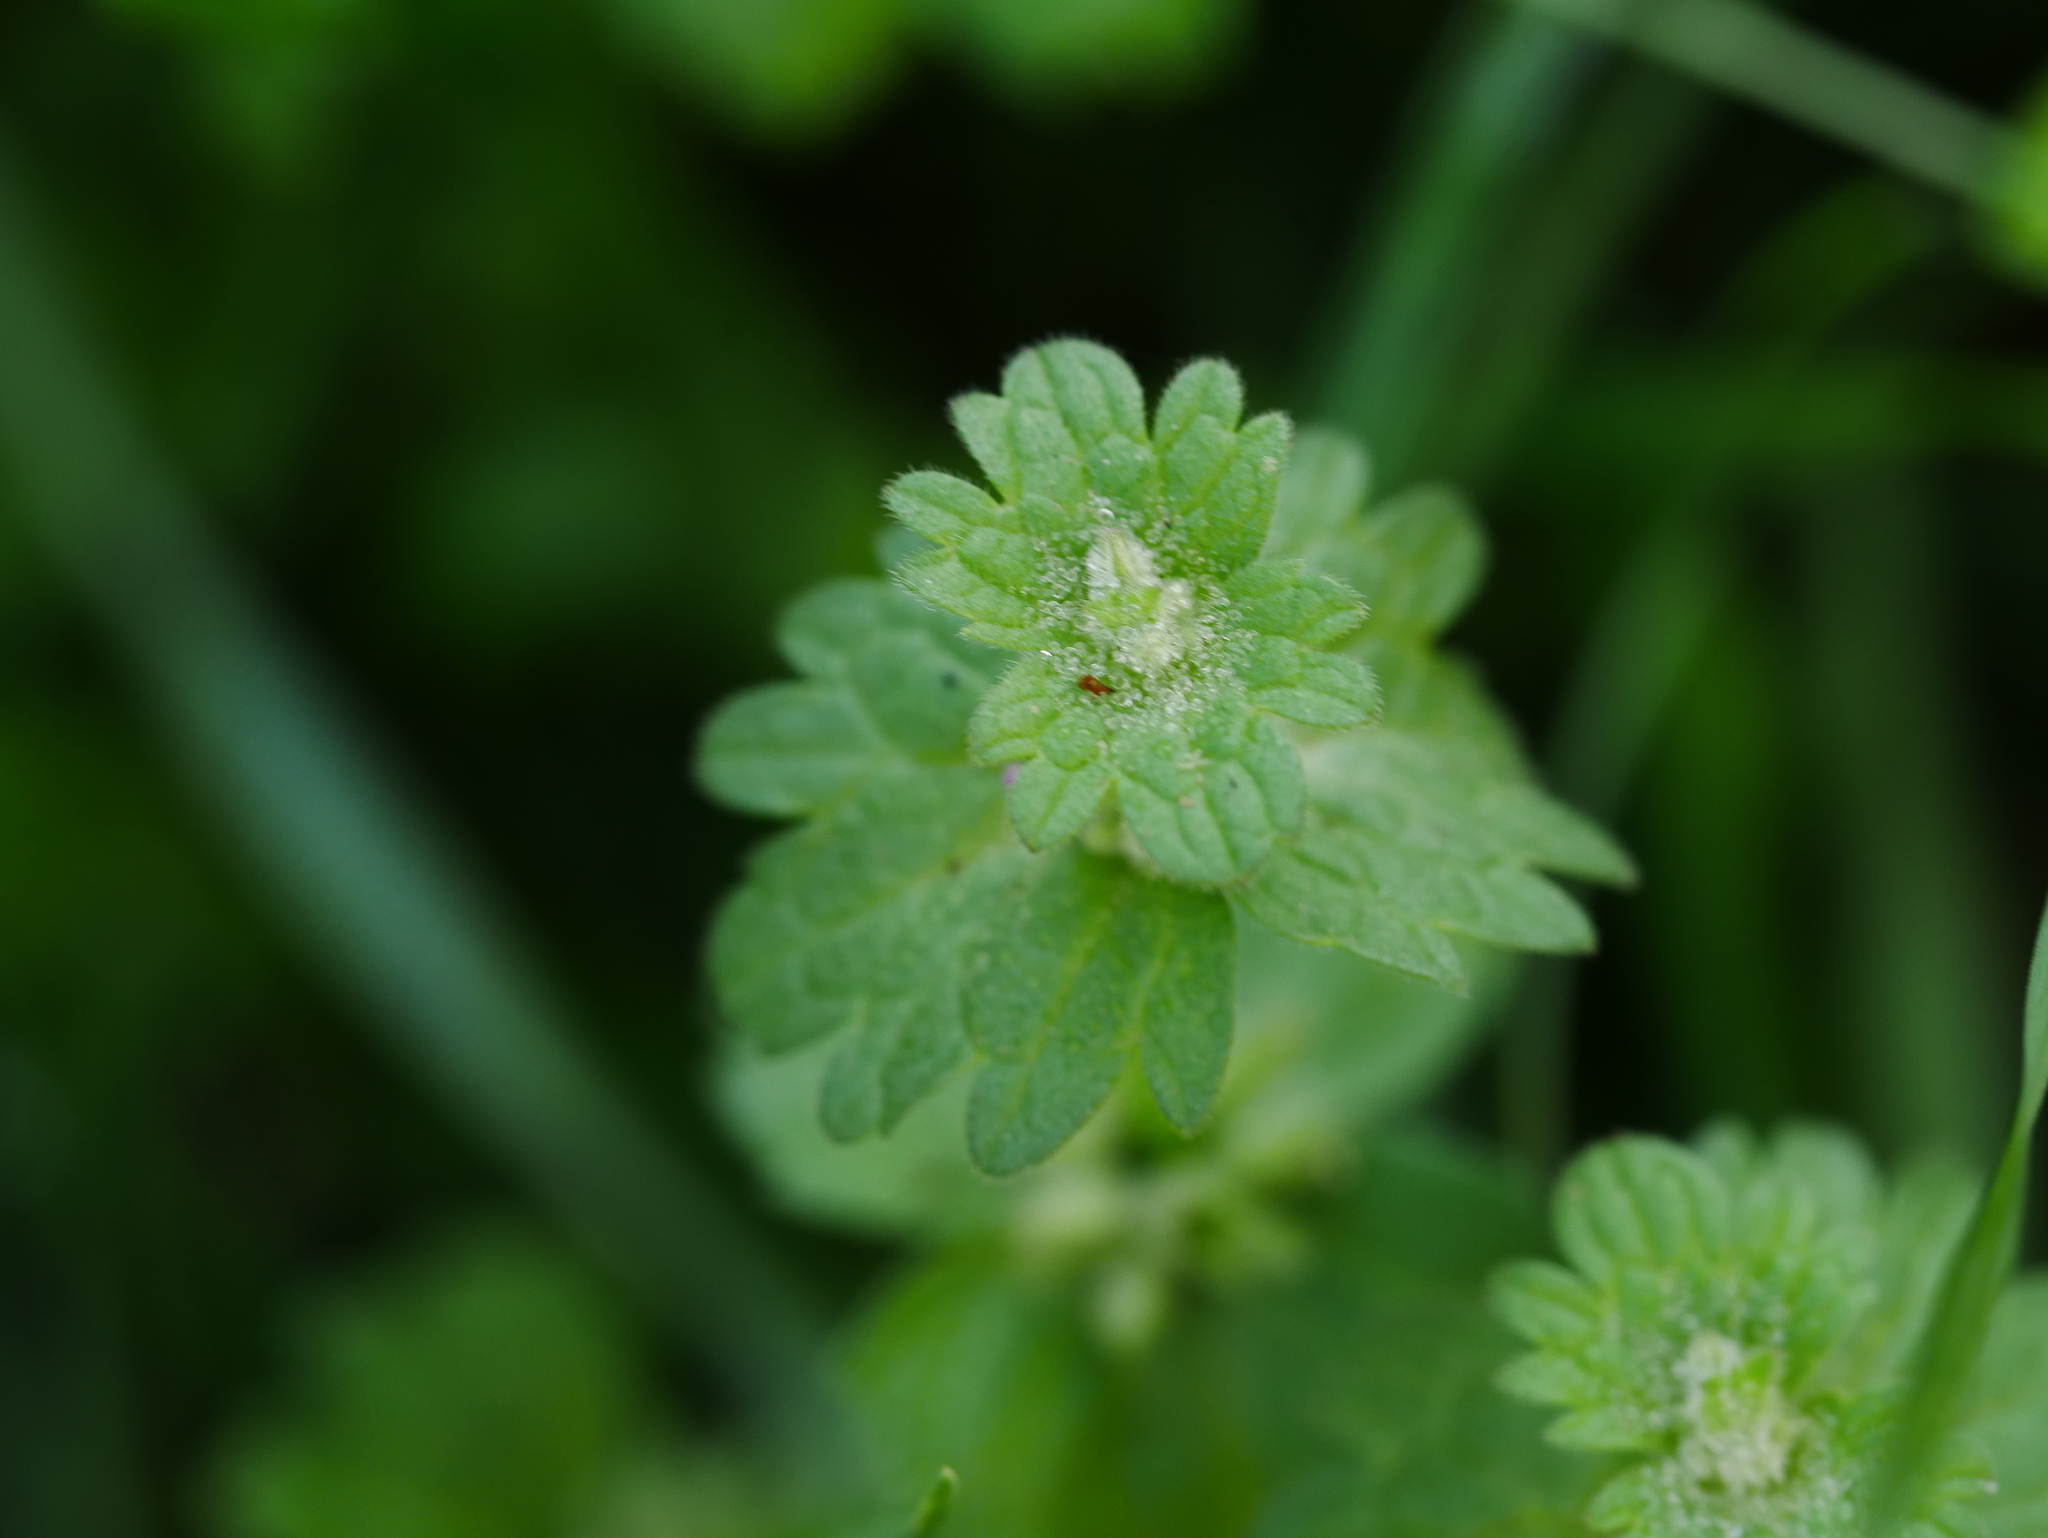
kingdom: Plantae
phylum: Tracheophyta
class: Magnoliopsida
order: Lamiales
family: Lamiaceae
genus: Lamium
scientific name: Lamium amplexicaule
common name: Henbit dead-nettle
